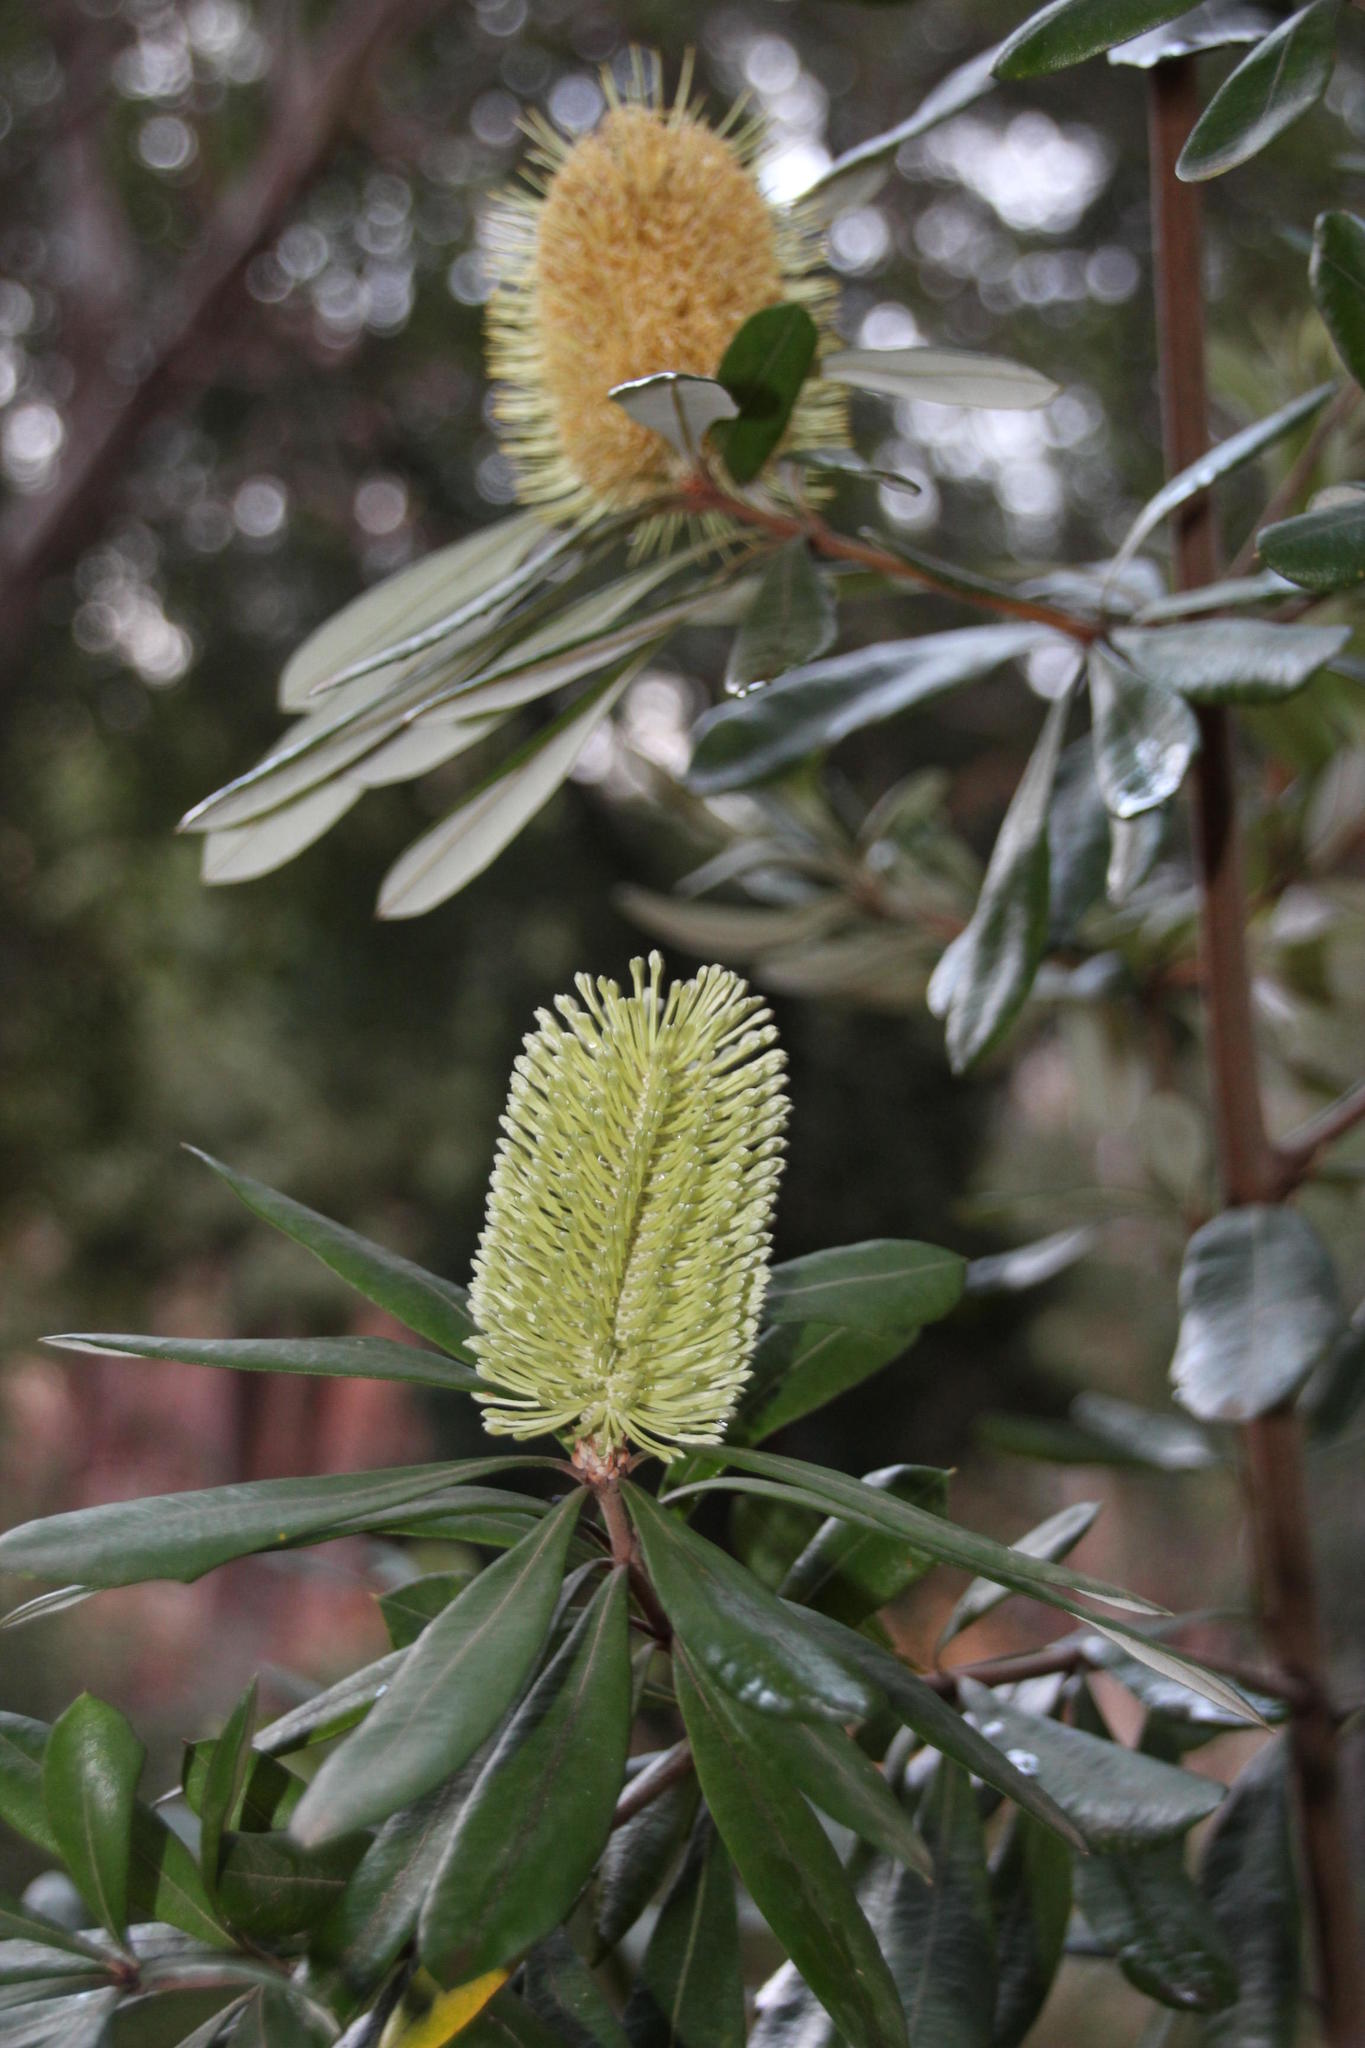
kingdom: Plantae
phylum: Tracheophyta
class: Magnoliopsida
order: Proteales
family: Proteaceae
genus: Banksia
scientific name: Banksia integrifolia
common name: White-honeysuckle
